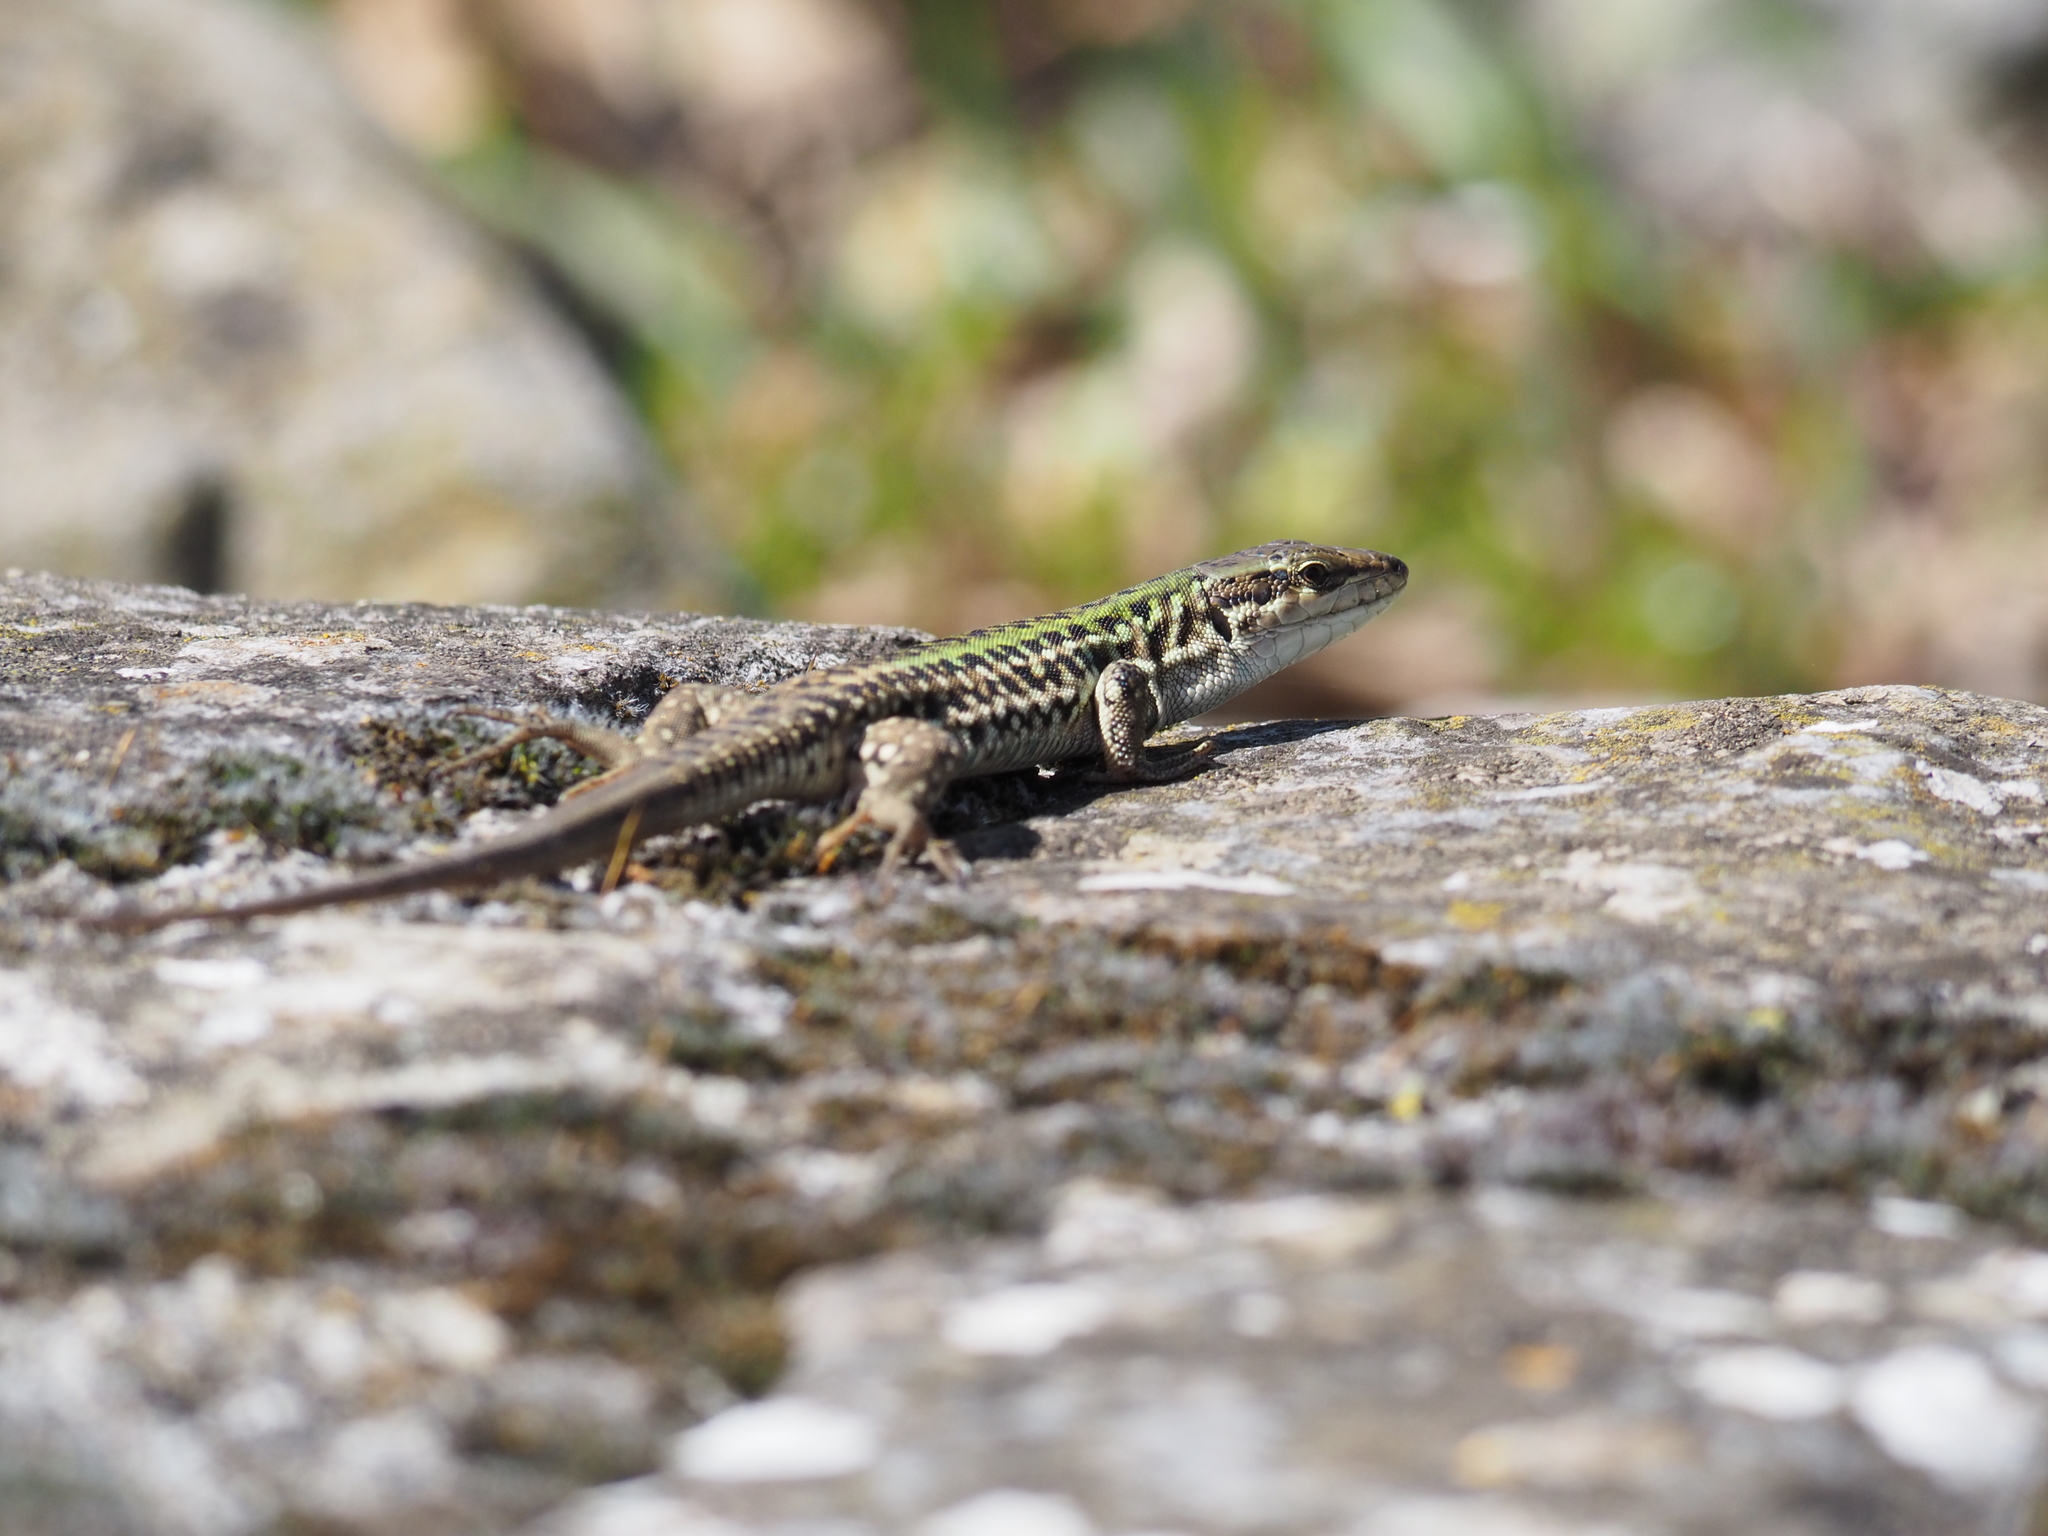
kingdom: Animalia
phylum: Chordata
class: Squamata
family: Lacertidae
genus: Podarcis
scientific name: Podarcis siculus
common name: Italian wall lizard
